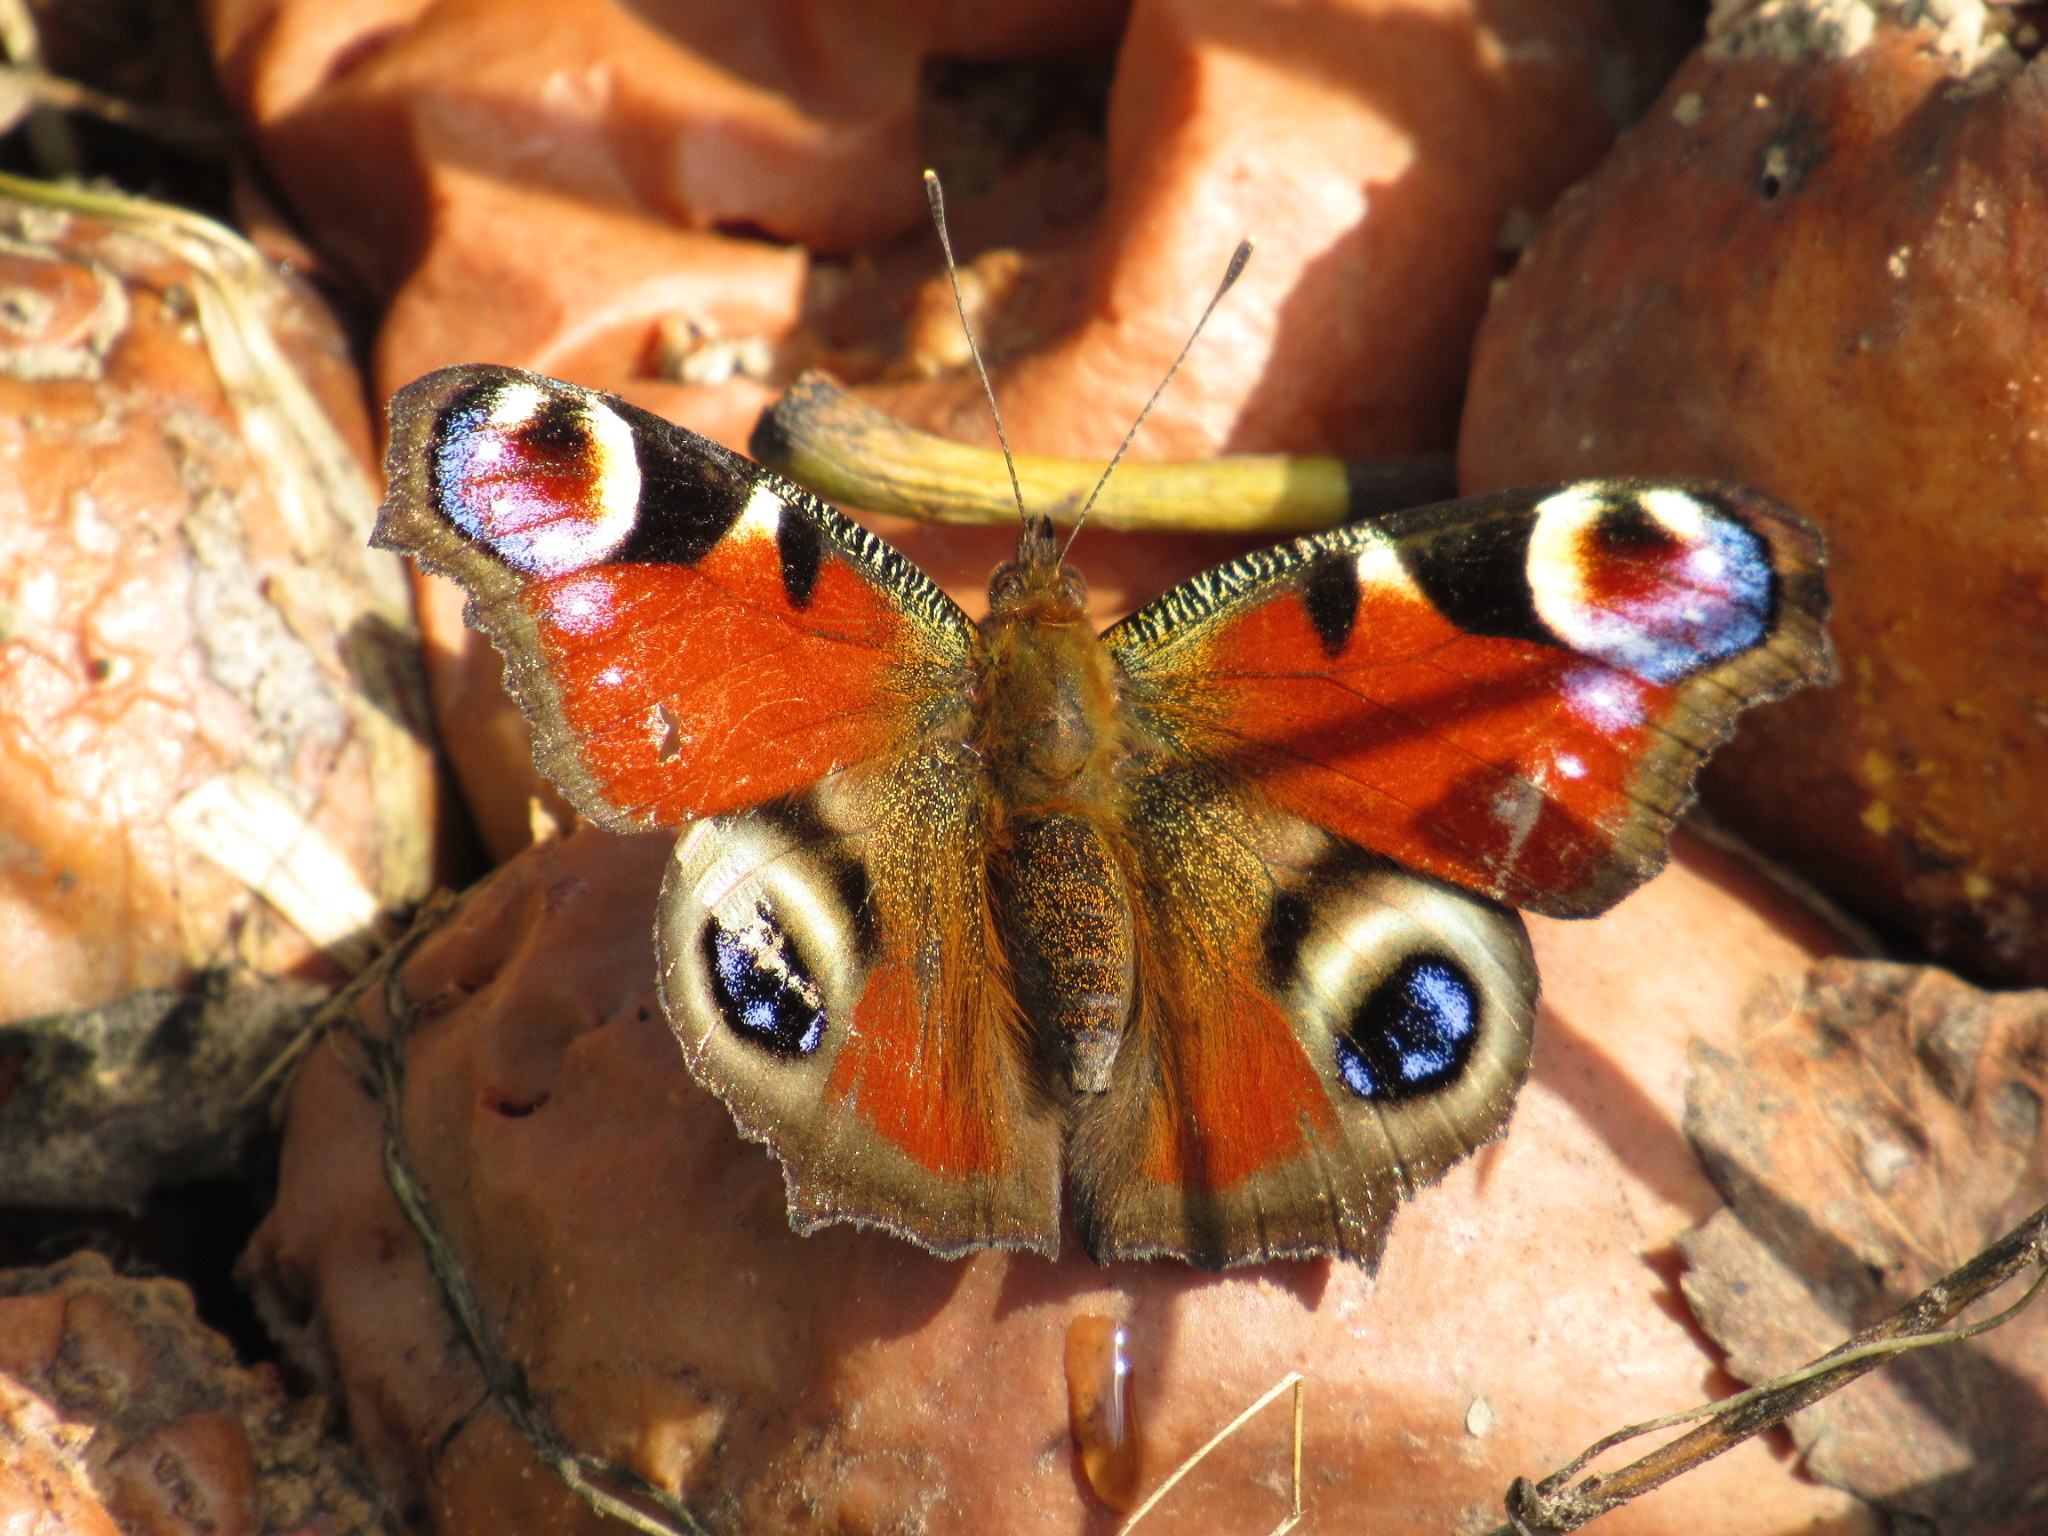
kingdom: Animalia
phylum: Arthropoda
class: Insecta
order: Lepidoptera
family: Nymphalidae
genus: Aglais
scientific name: Aglais io
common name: Peacock
